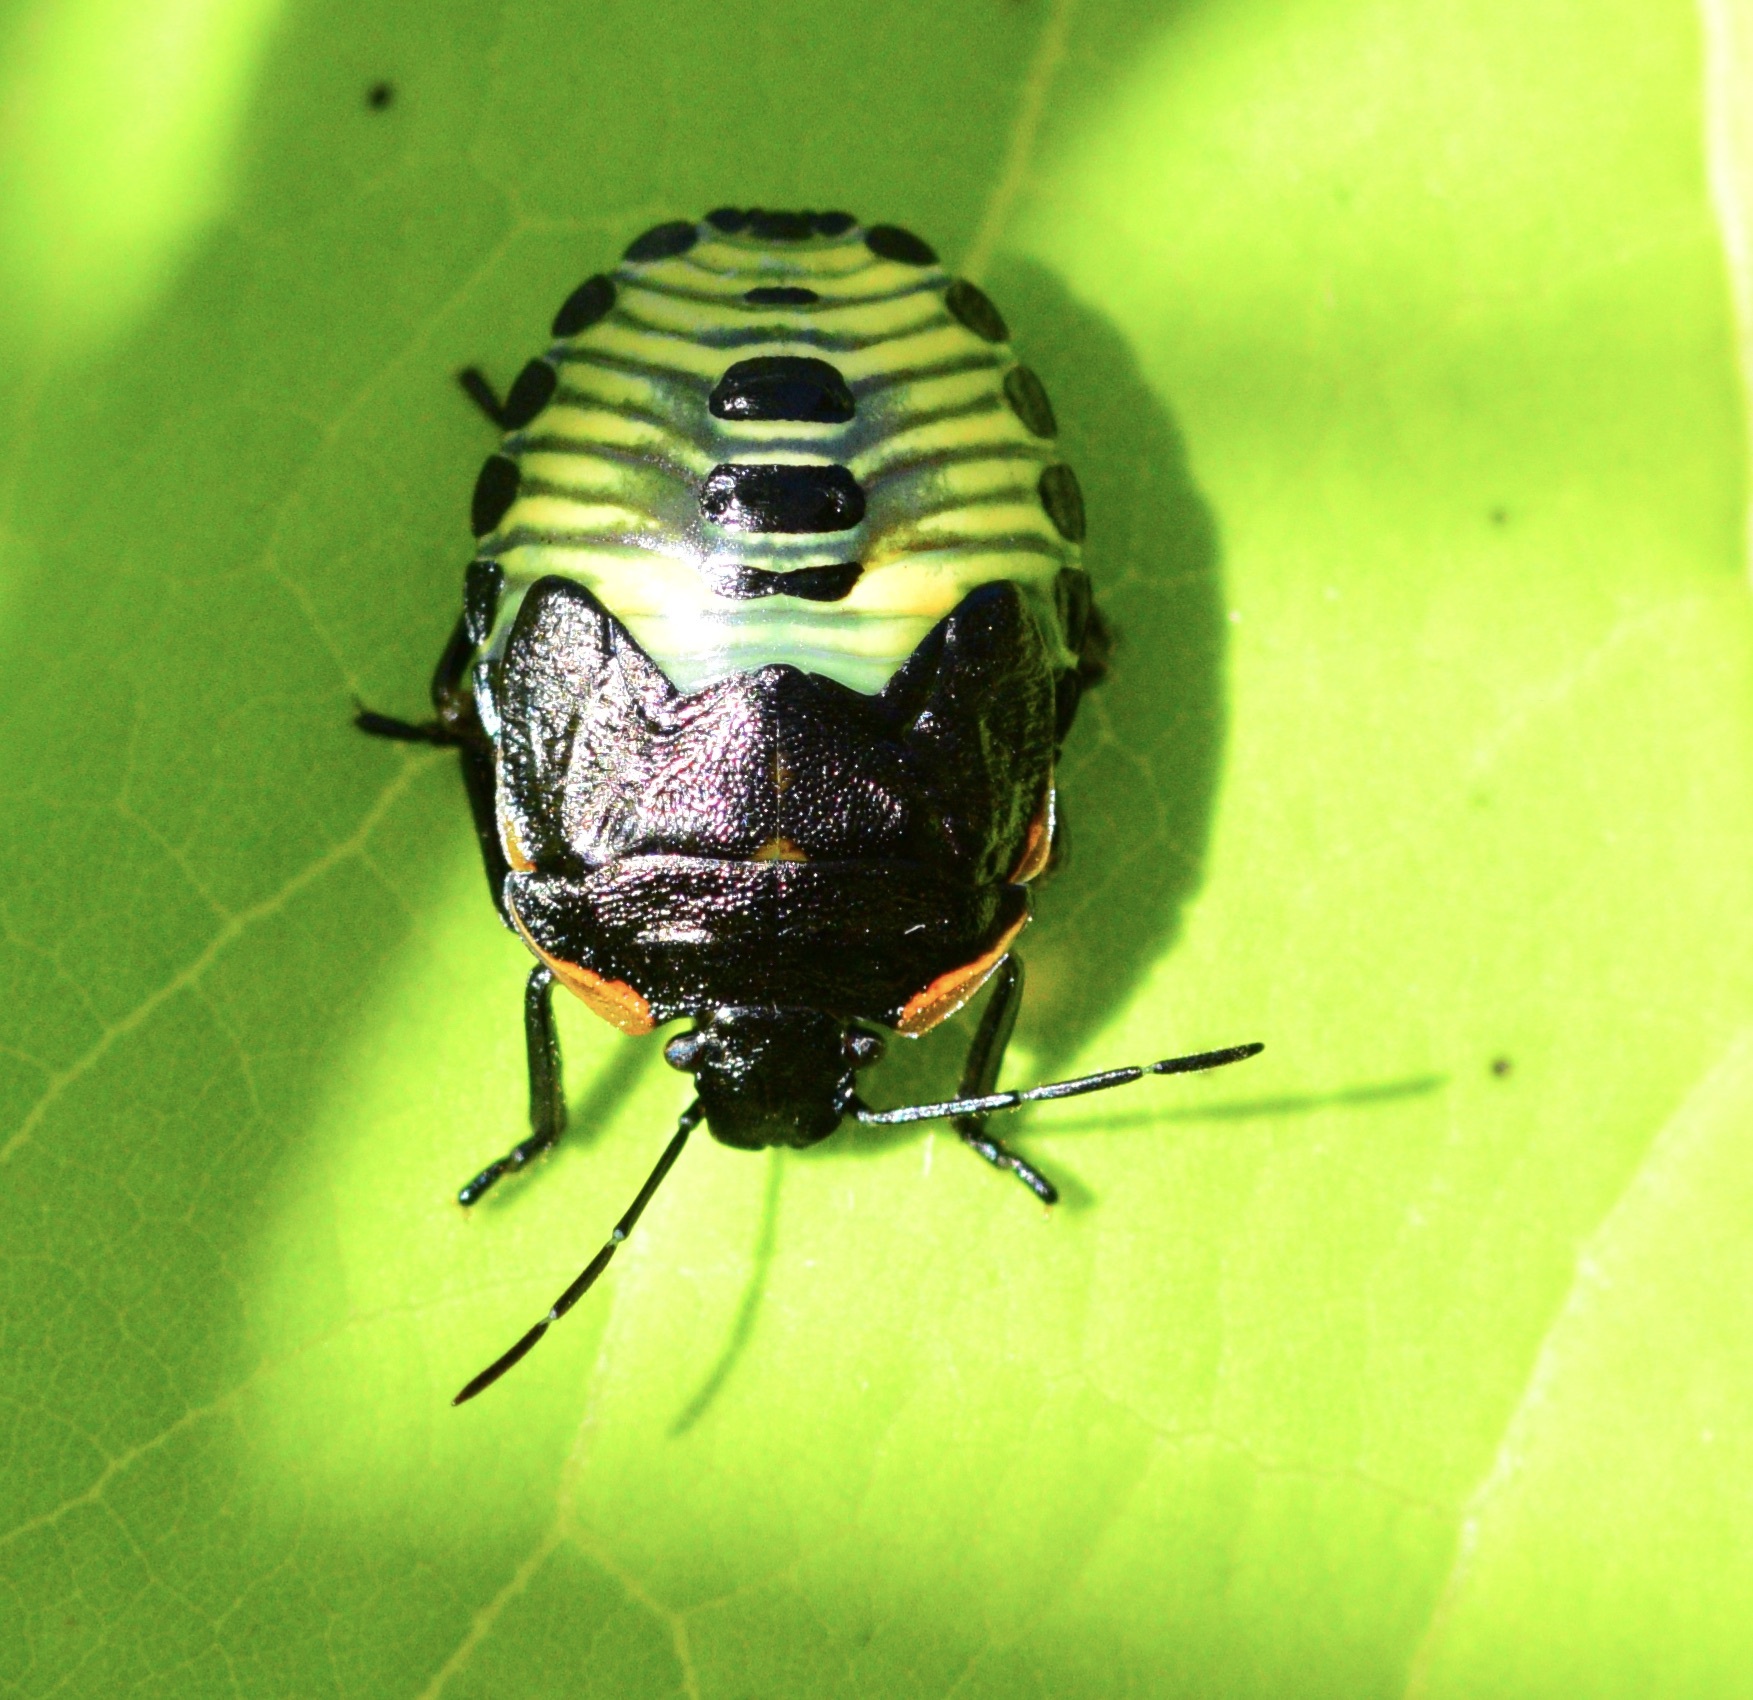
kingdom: Animalia
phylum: Arthropoda
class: Insecta
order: Hemiptera
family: Pentatomidae
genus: Chinavia
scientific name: Chinavia hilaris
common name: Green stink bug
